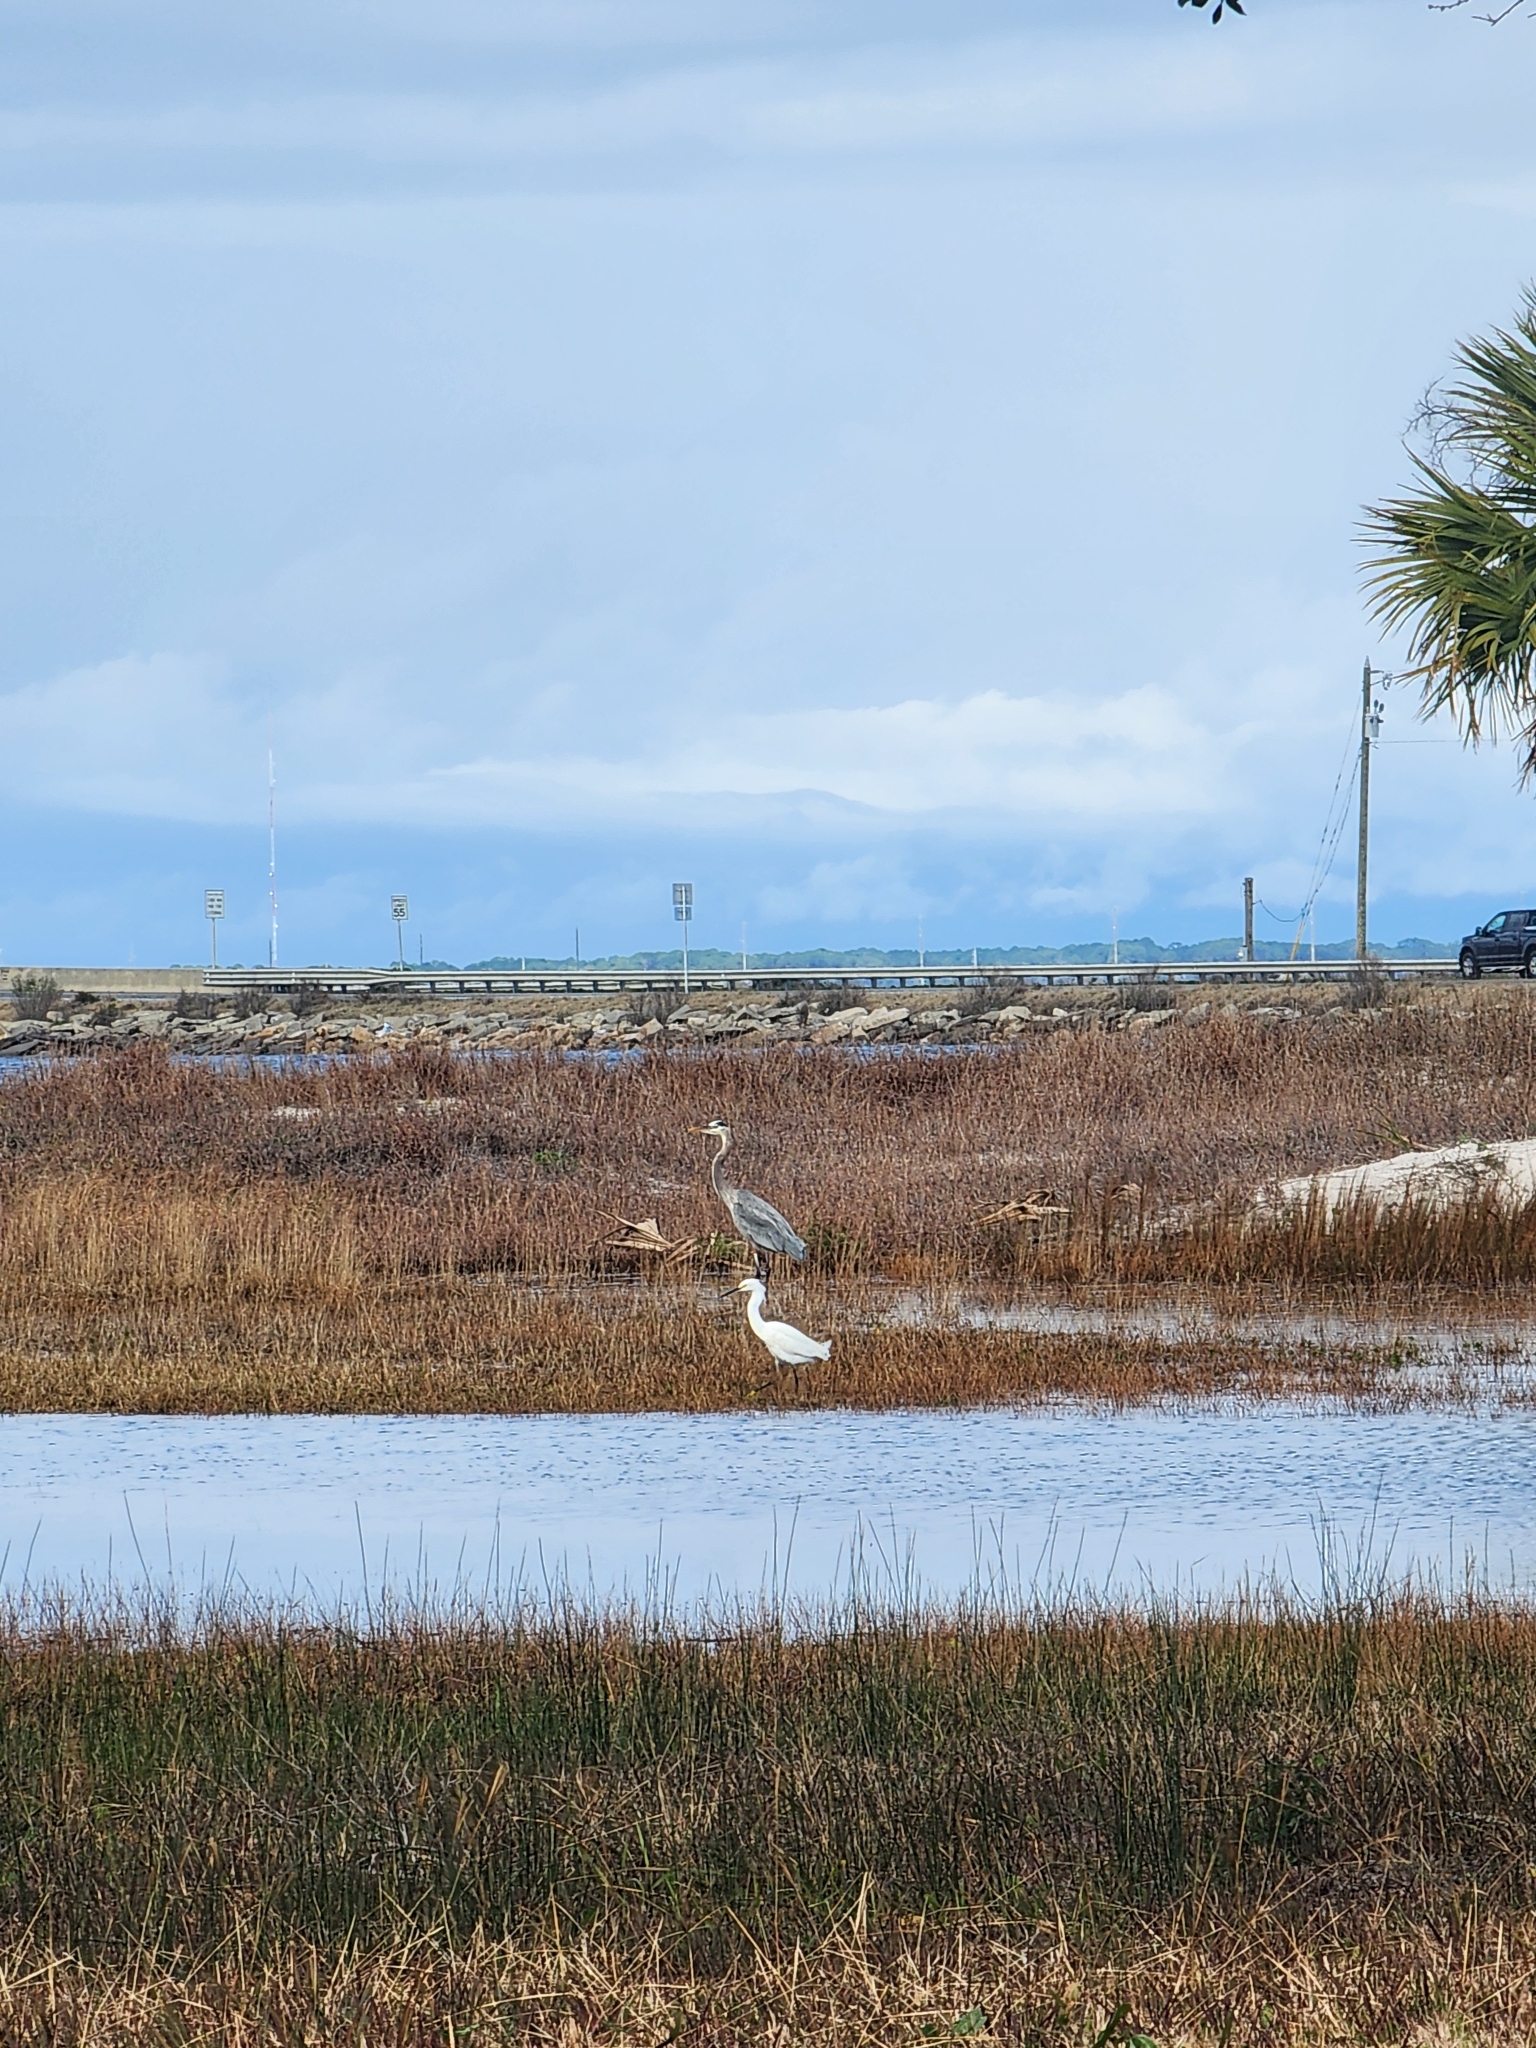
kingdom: Animalia
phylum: Chordata
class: Aves
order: Pelecaniformes
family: Ardeidae
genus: Egretta
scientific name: Egretta thula
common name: Snowy egret
